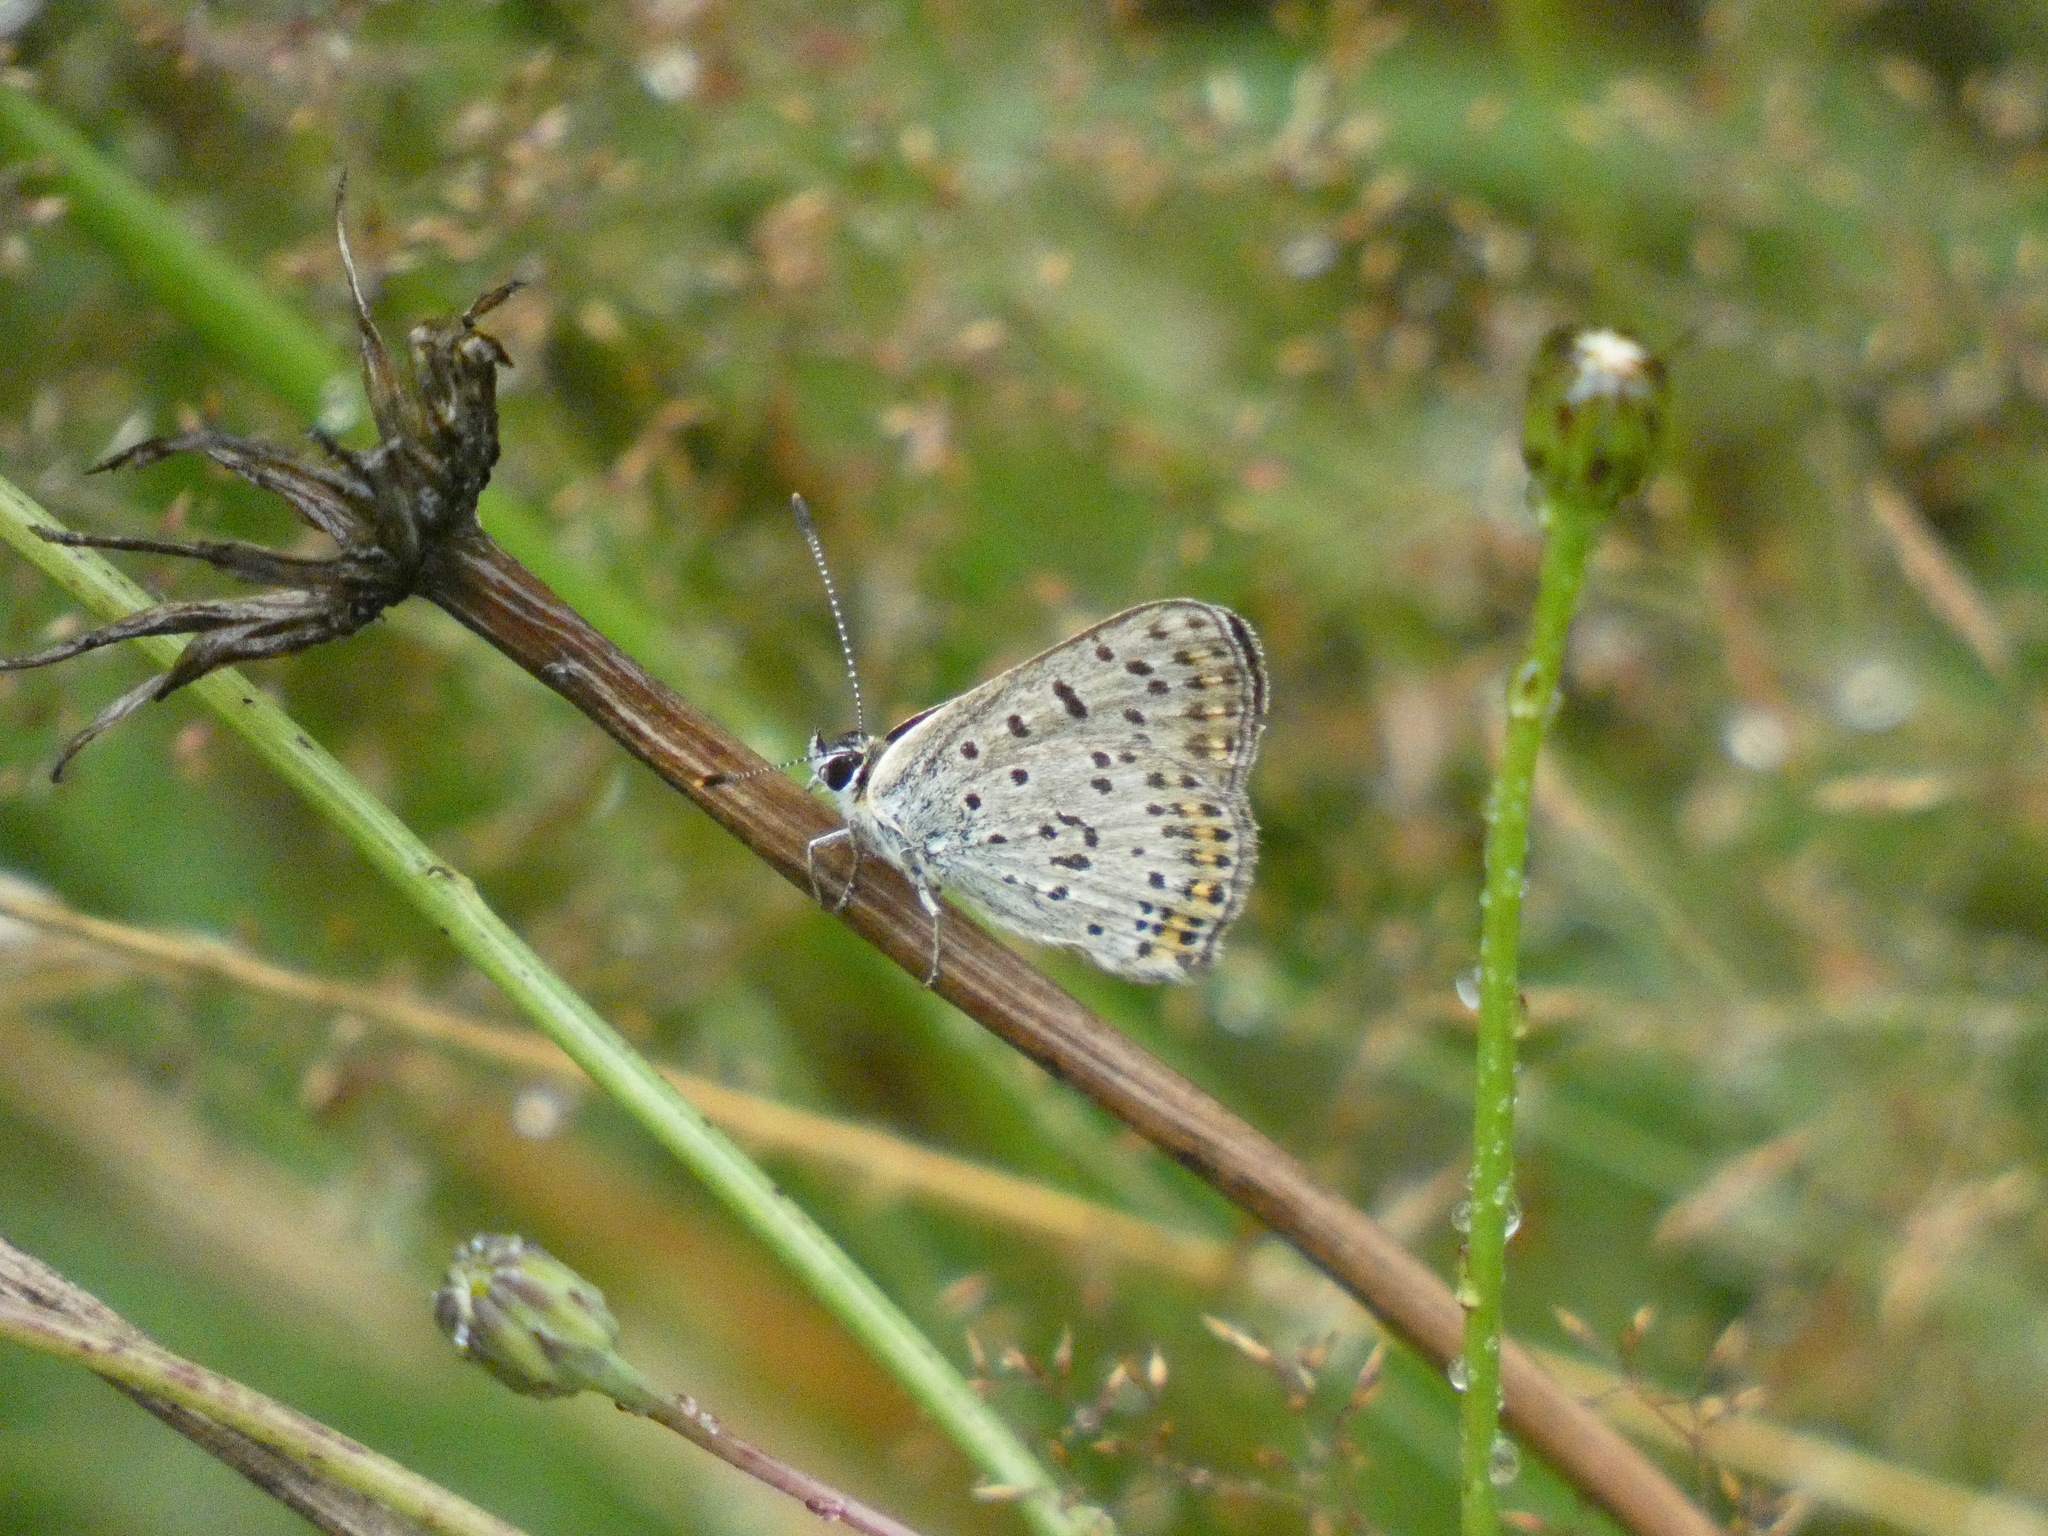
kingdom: Animalia
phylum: Arthropoda
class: Insecta
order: Lepidoptera
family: Lycaenidae
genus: Loweia
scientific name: Loweia tityrus
